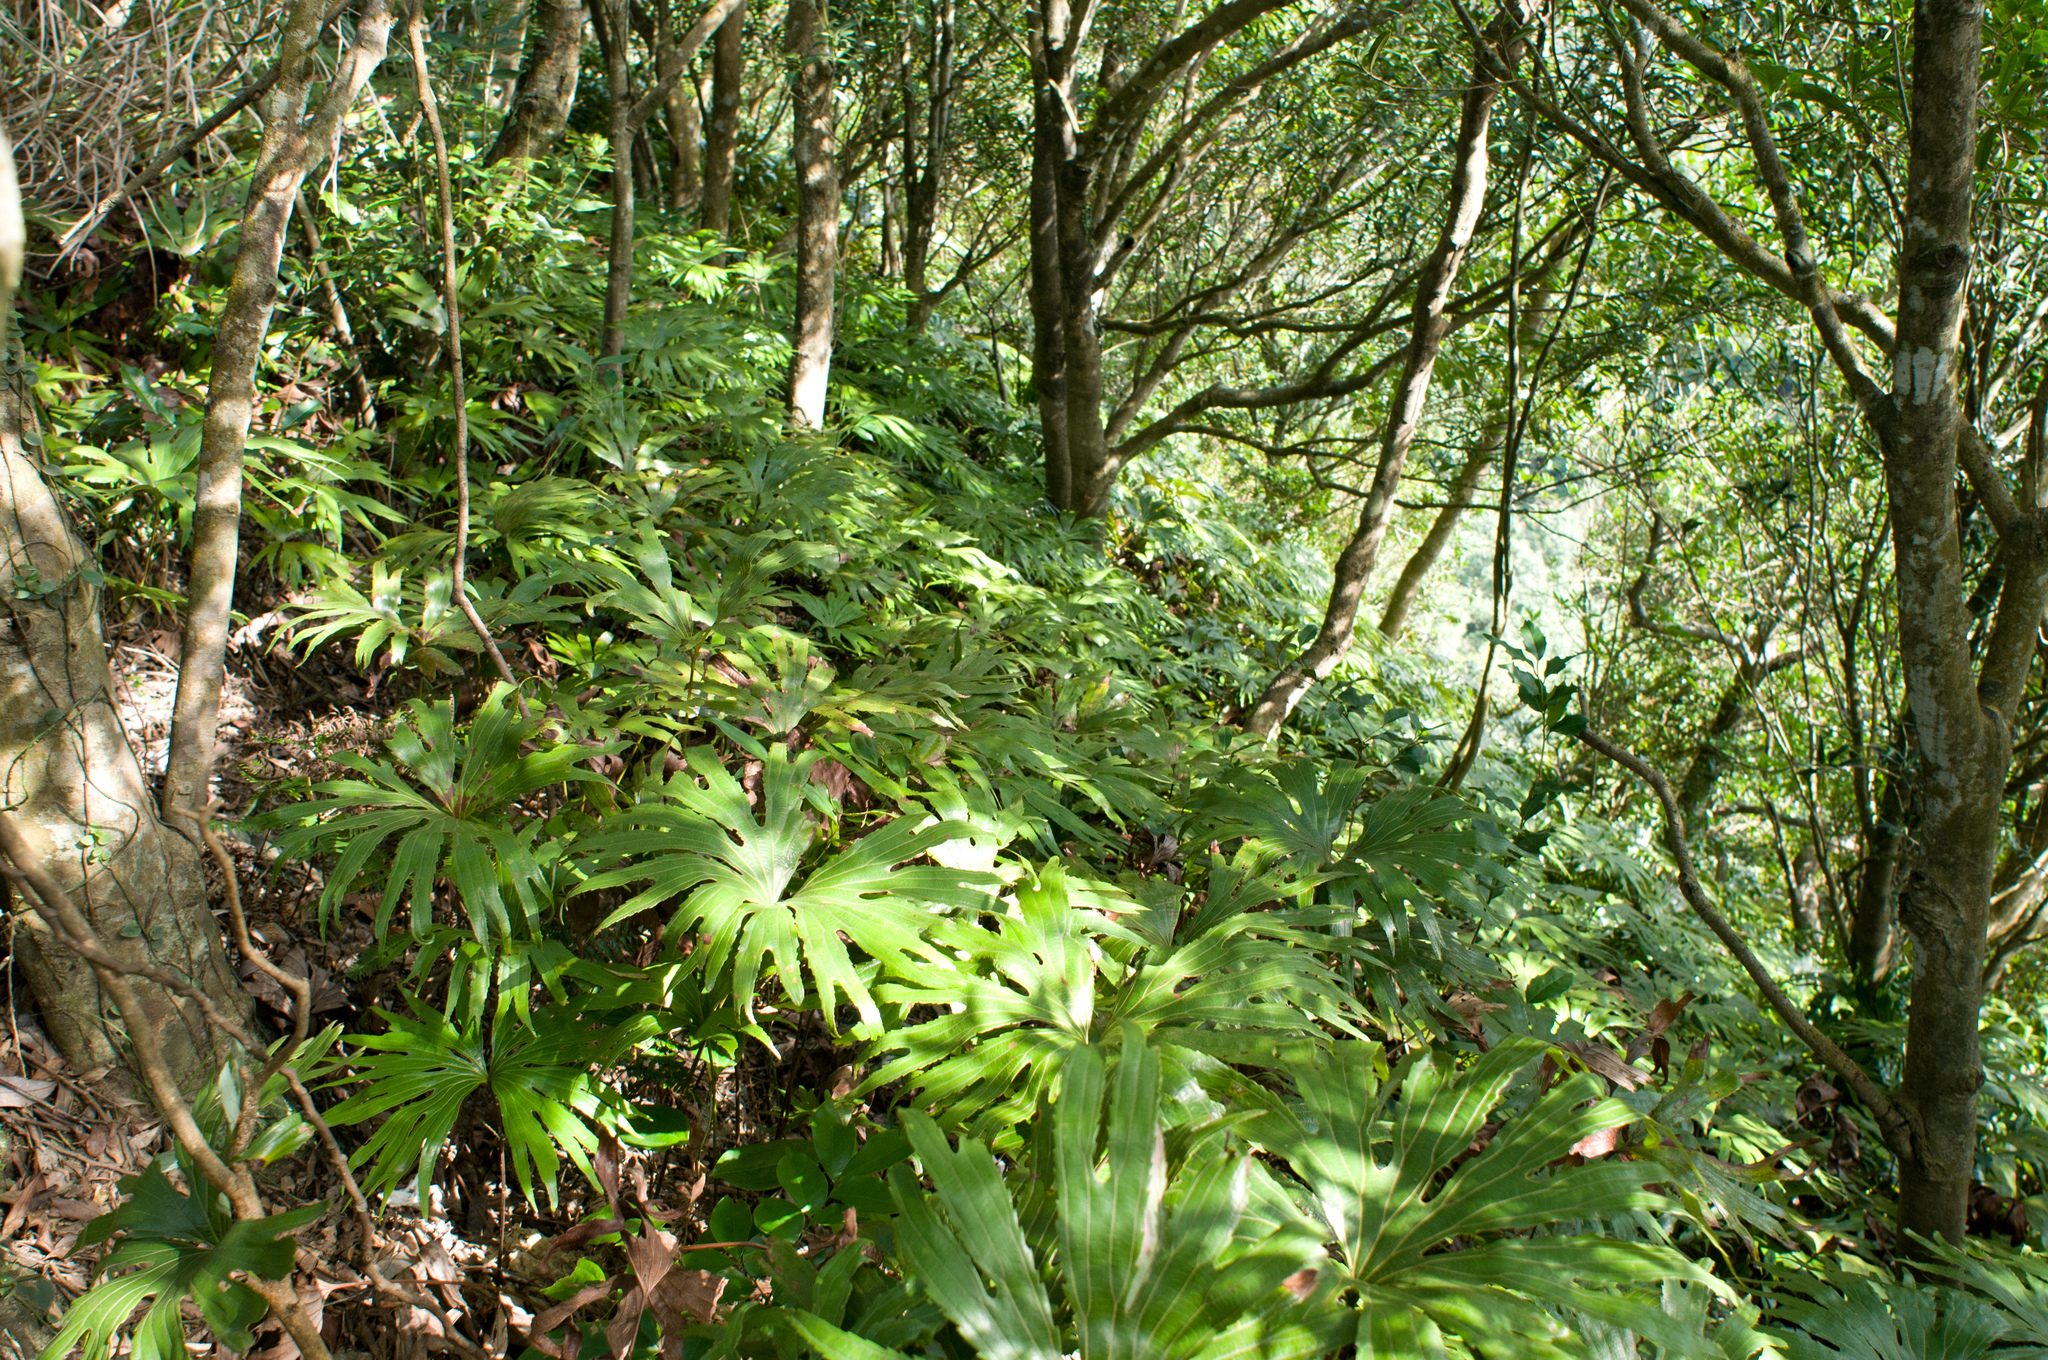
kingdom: Plantae
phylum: Tracheophyta
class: Polypodiopsida
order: Gleicheniales
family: Dipteridaceae
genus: Dipteris
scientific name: Dipteris conjugata
